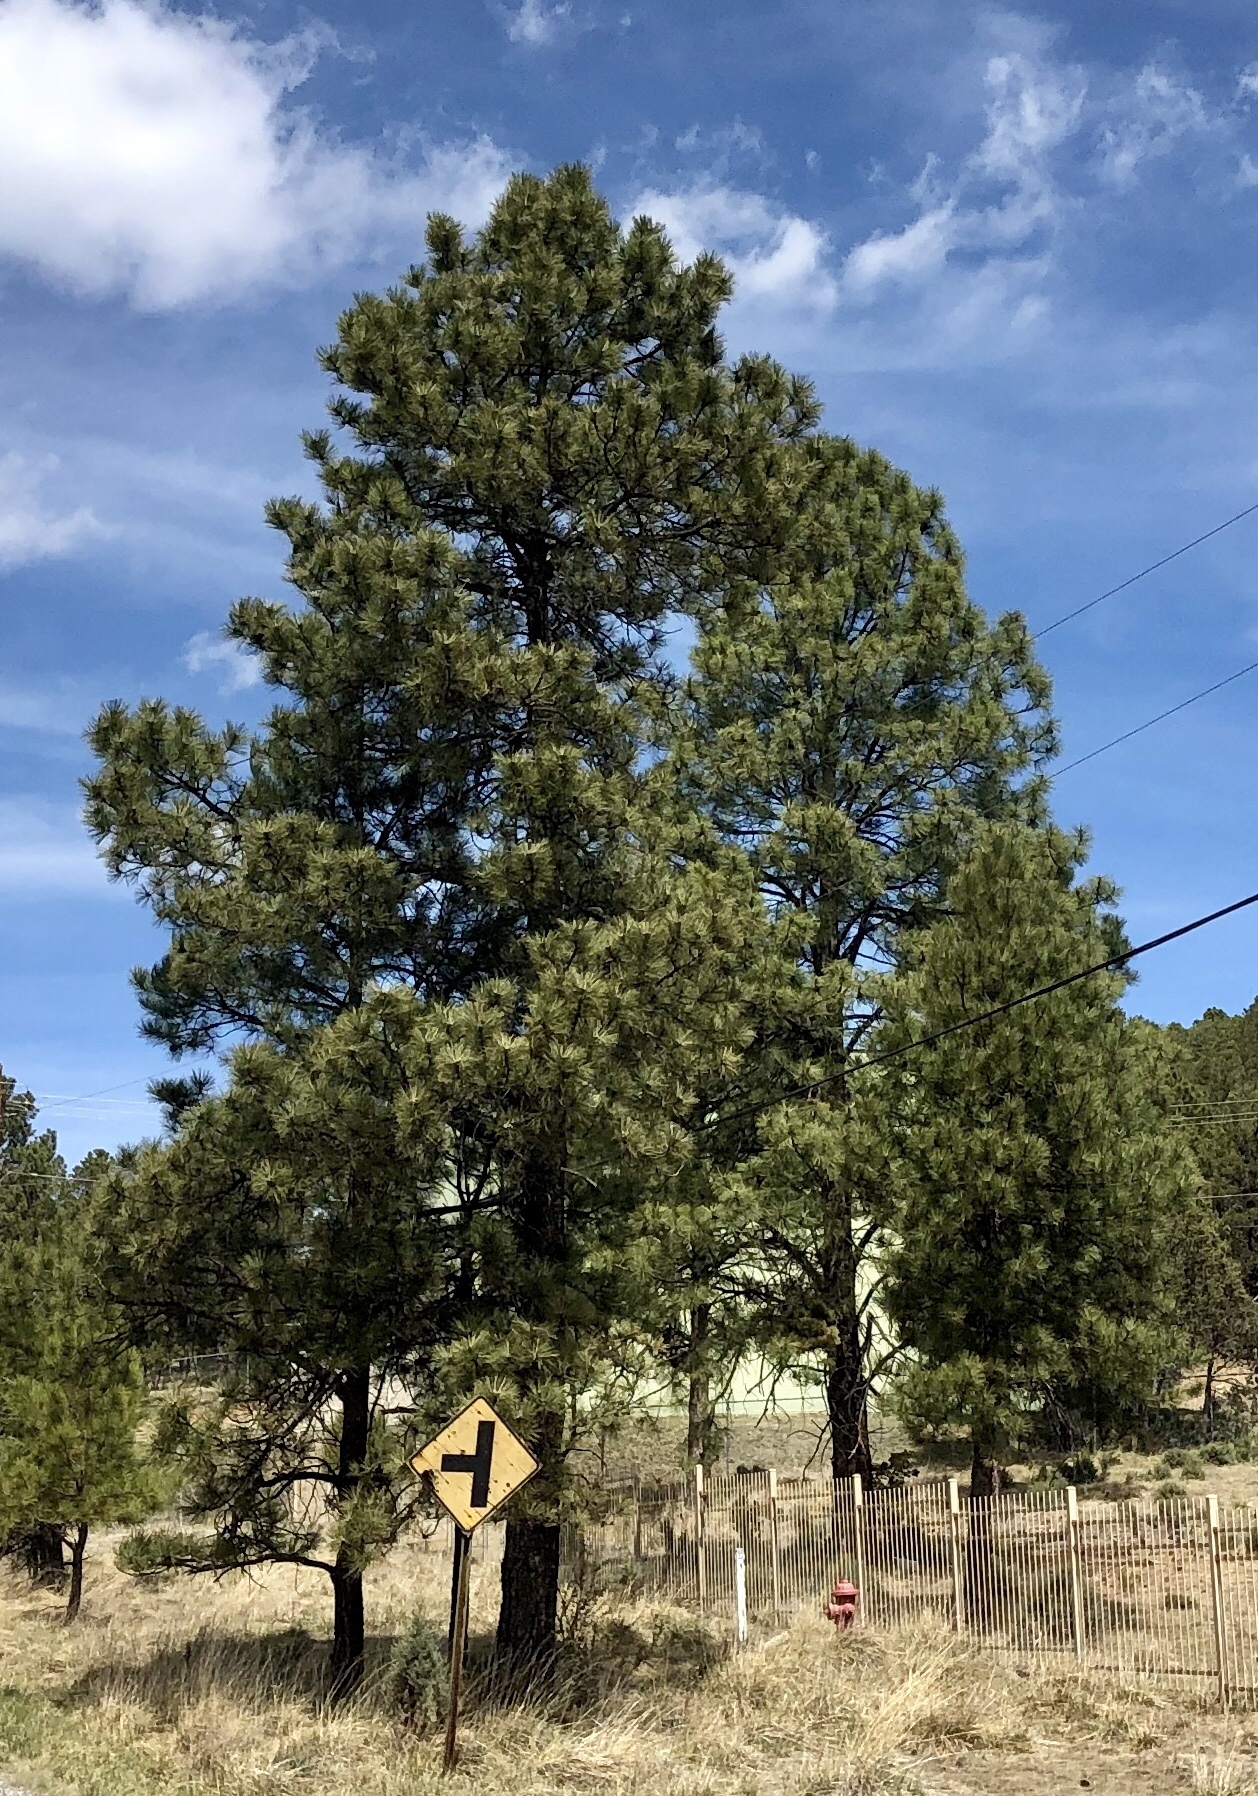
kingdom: Plantae
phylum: Tracheophyta
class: Pinopsida
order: Pinales
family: Pinaceae
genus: Pinus
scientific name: Pinus ponderosa
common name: Western yellow-pine
